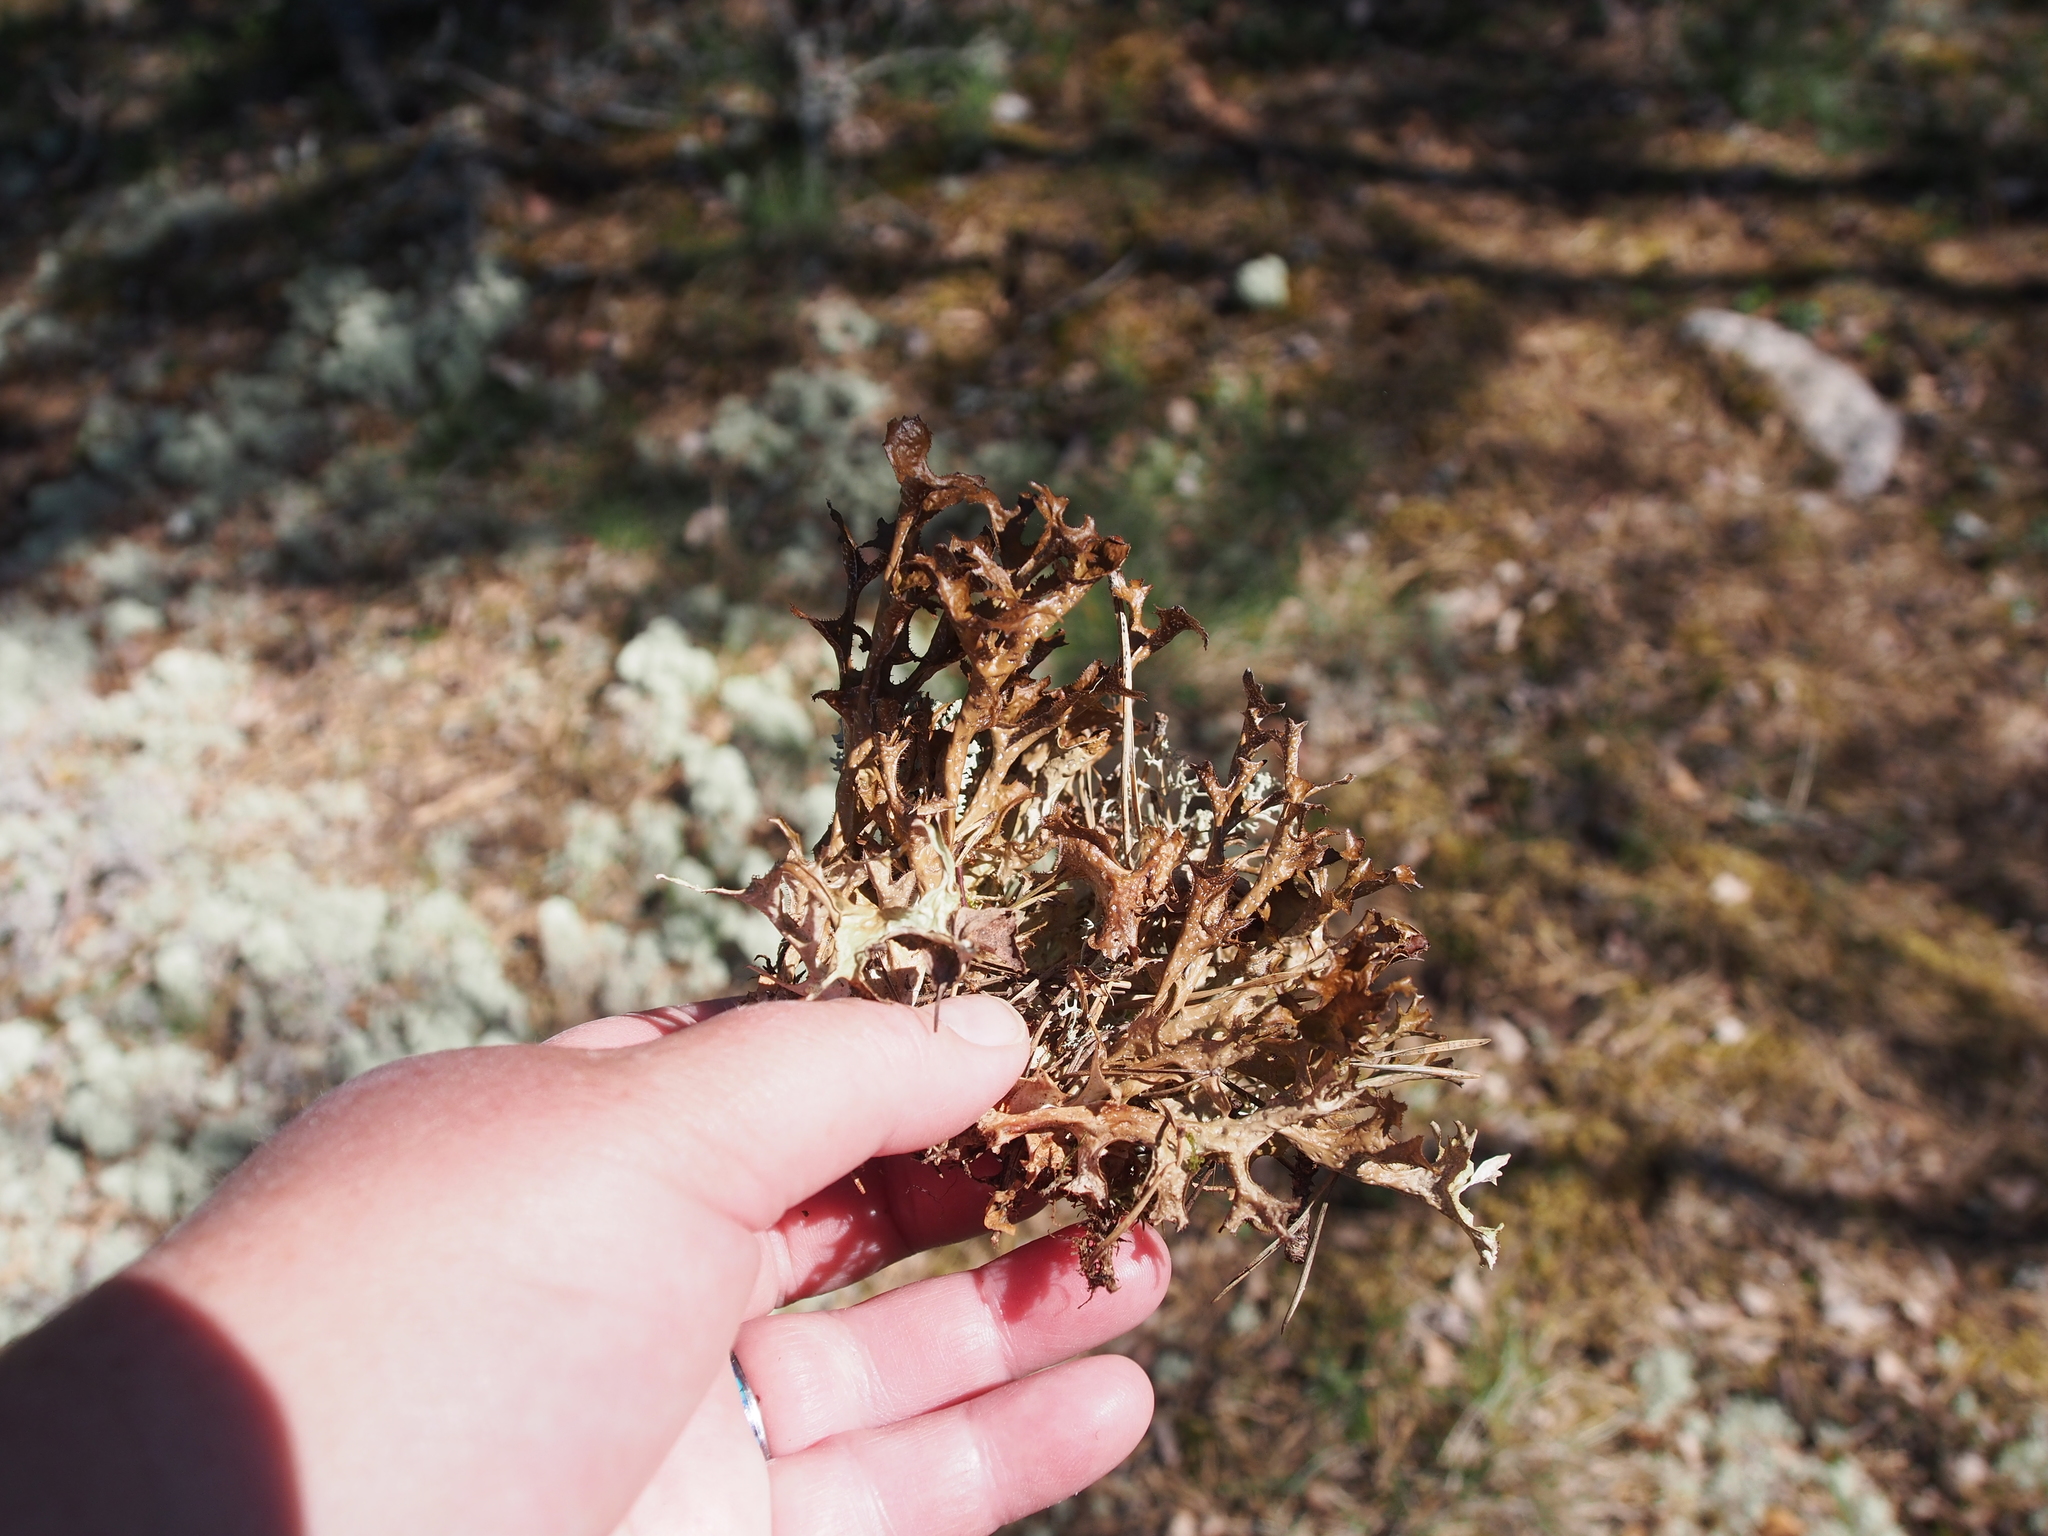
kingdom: Fungi
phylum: Ascomycota
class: Lecanoromycetes
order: Lecanorales
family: Parmeliaceae
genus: Cetraria
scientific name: Cetraria islandica
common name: Iceland lichen
